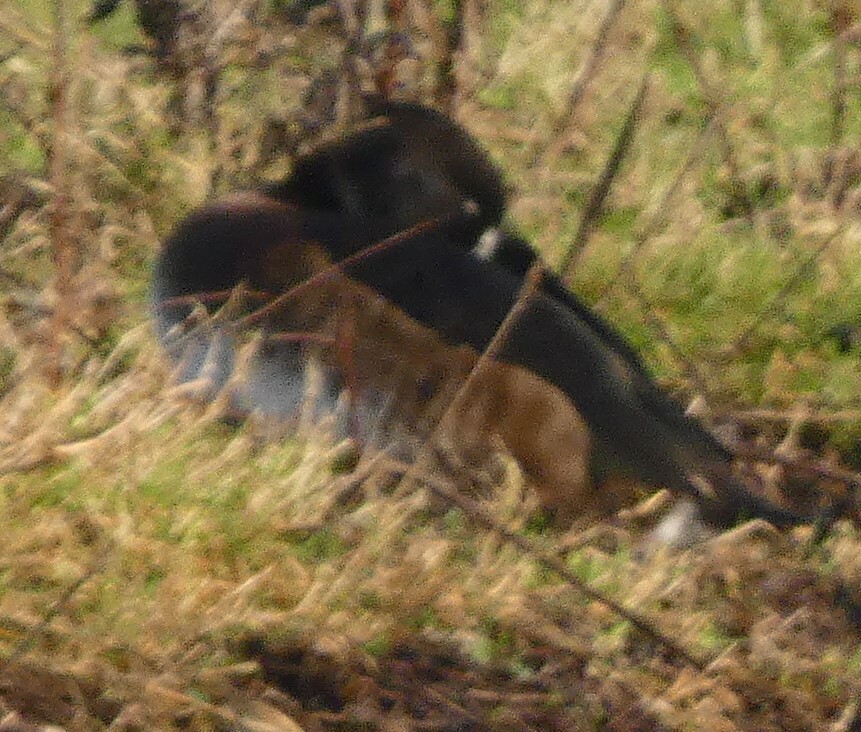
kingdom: Animalia
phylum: Chordata
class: Aves
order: Anseriformes
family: Anatidae
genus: Aythya
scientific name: Aythya fuligula
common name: Tufted duck
